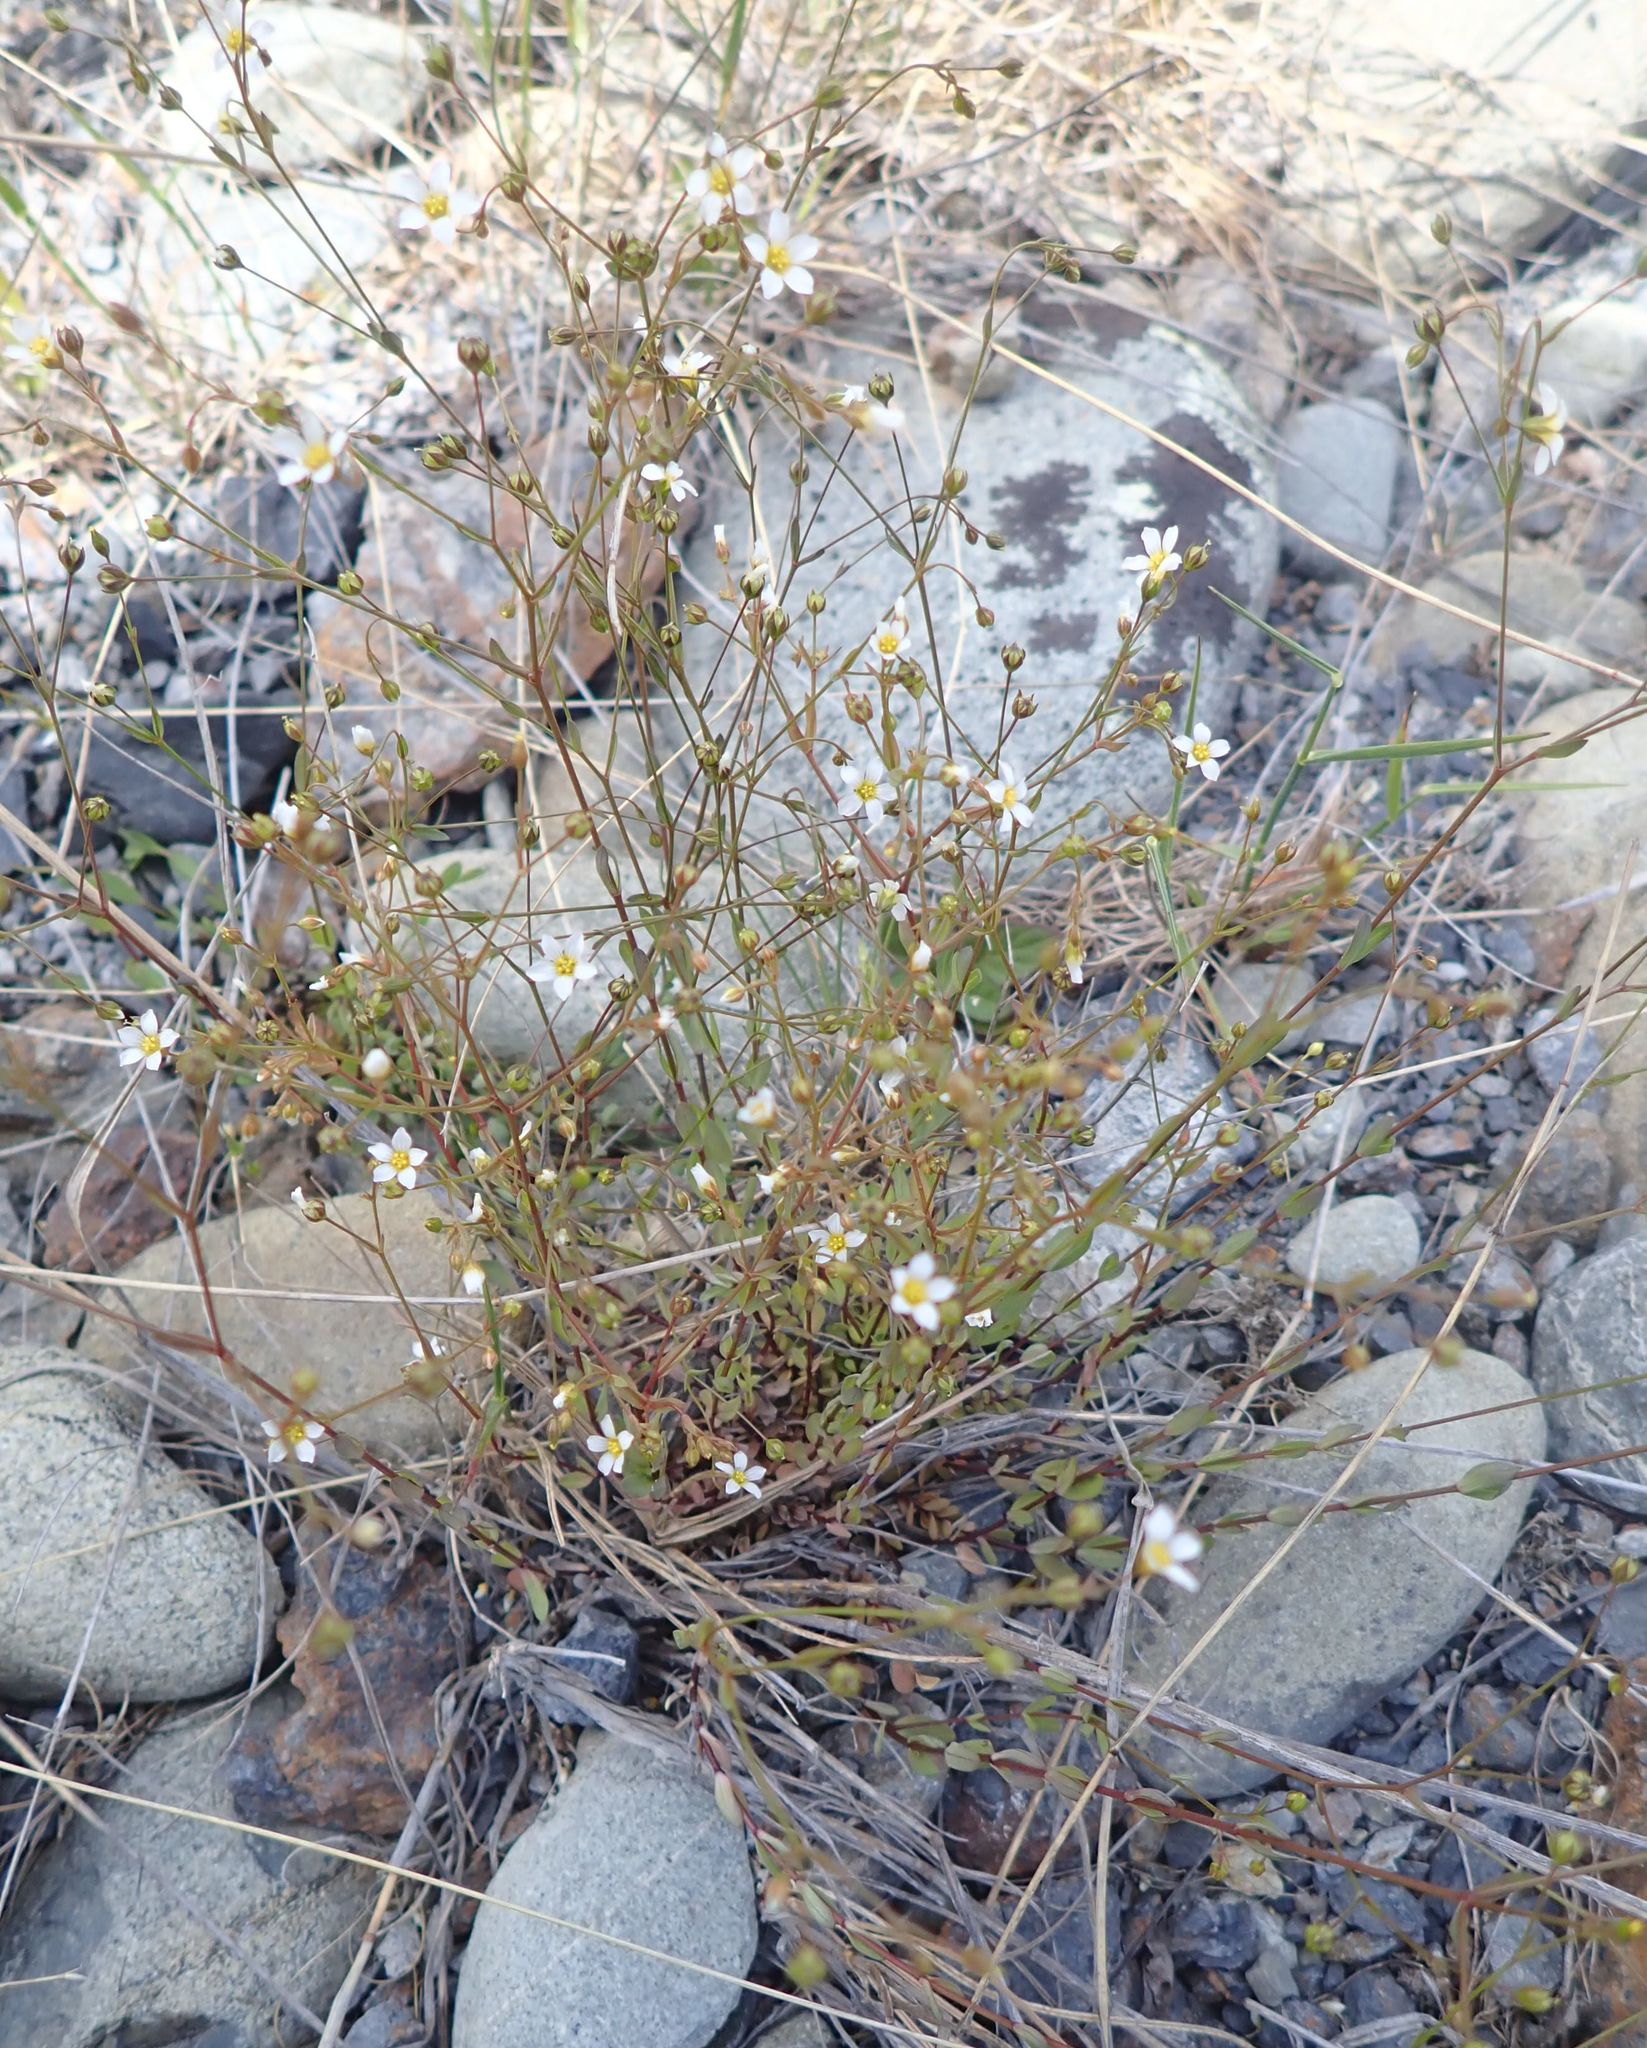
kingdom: Plantae
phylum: Tracheophyta
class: Magnoliopsida
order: Malpighiales
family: Linaceae
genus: Linum
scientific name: Linum catharticum
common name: Fairy flax
